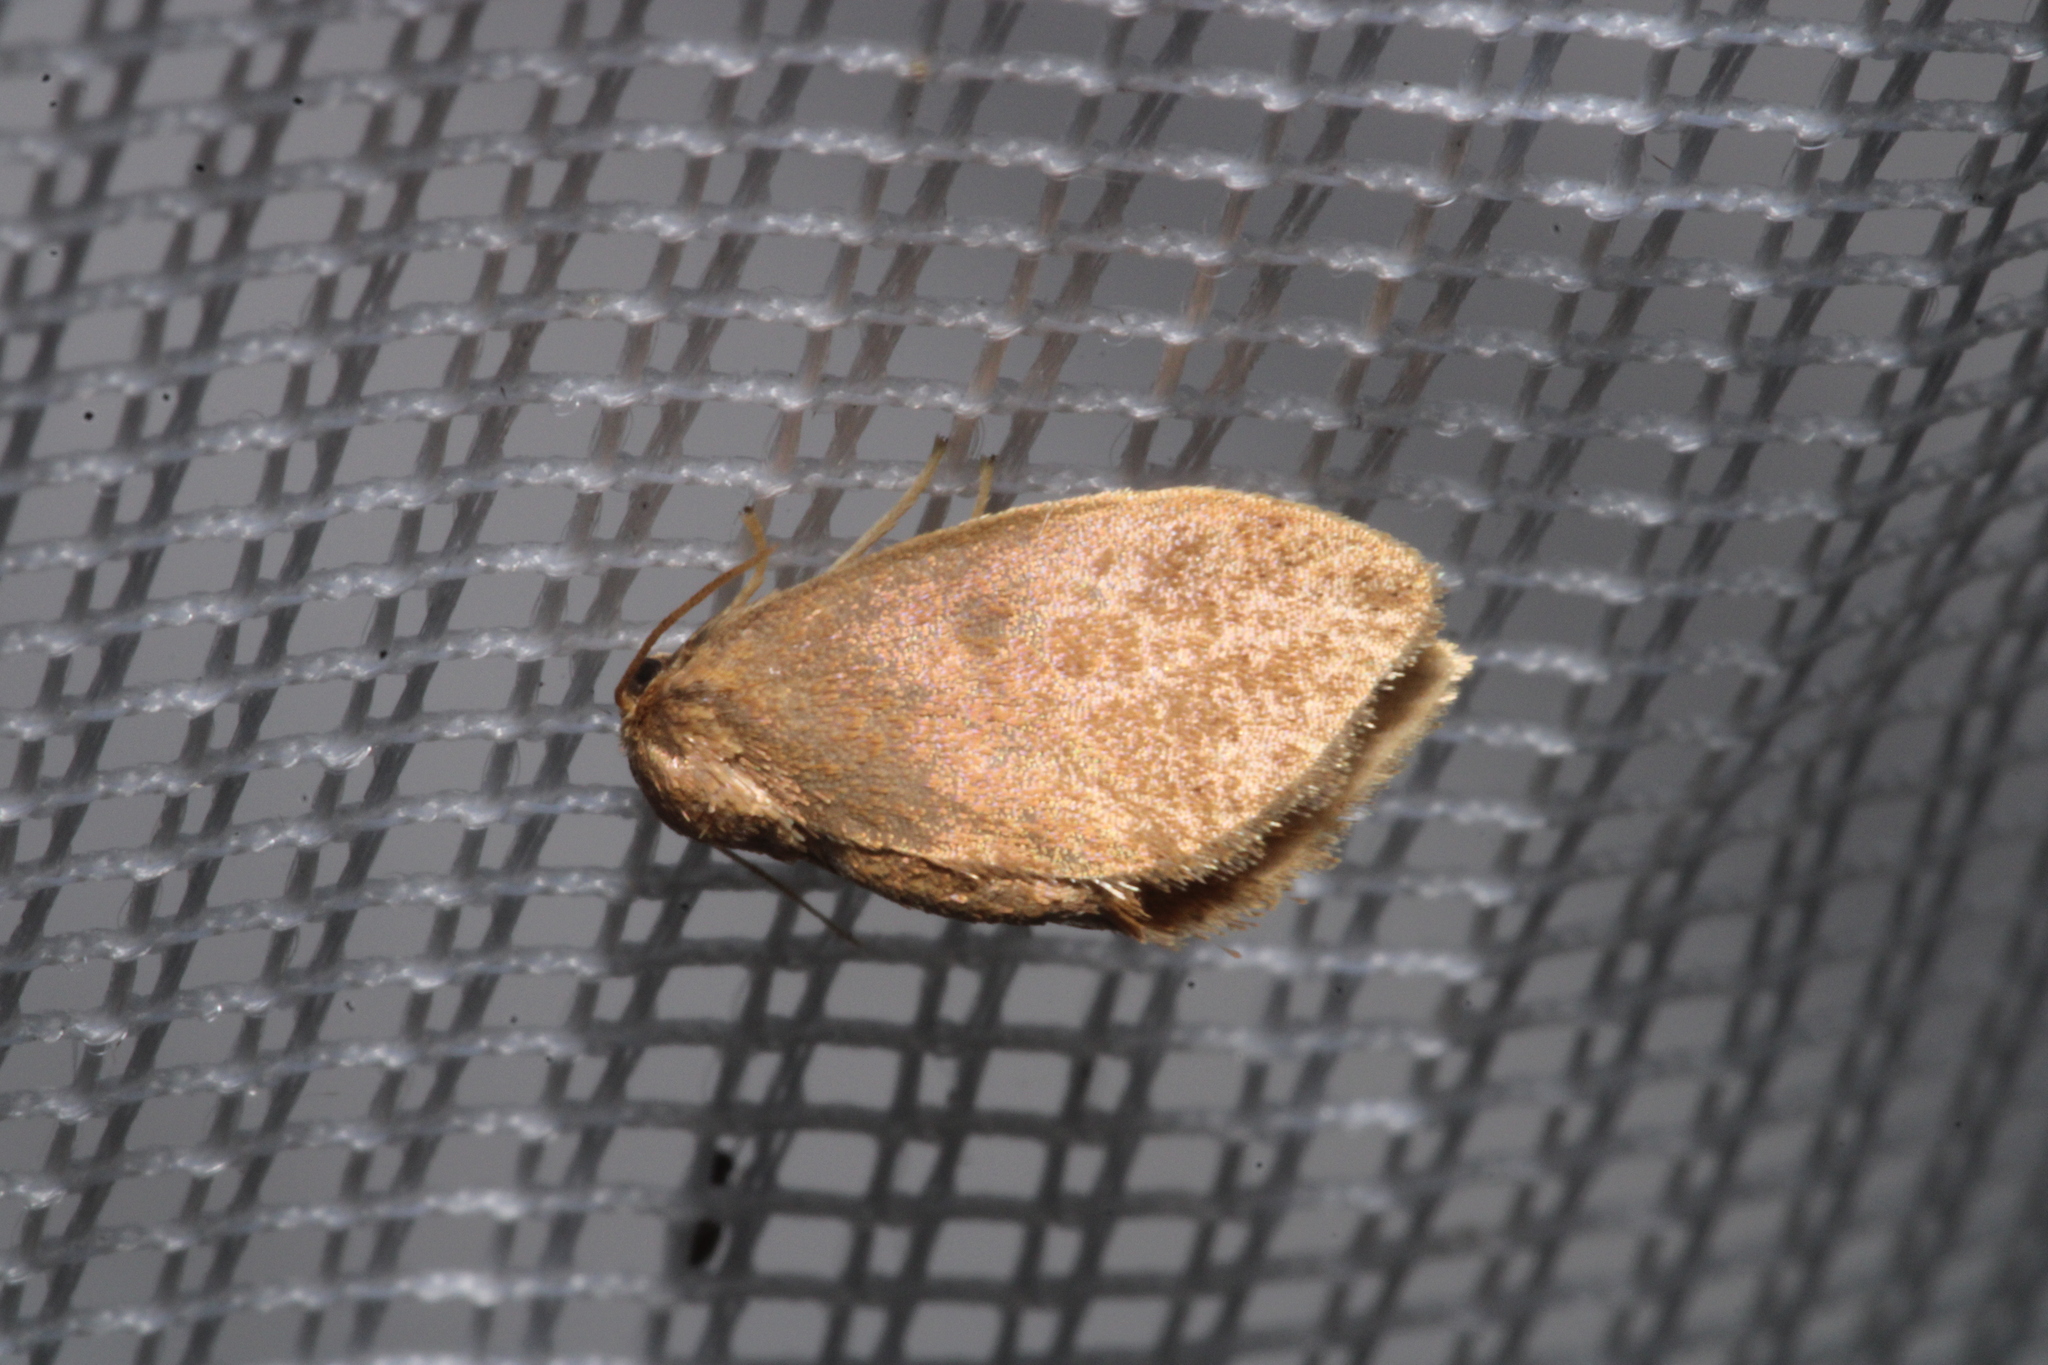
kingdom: Animalia
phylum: Arthropoda
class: Insecta
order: Lepidoptera
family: Limacodidae
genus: Heterogenea
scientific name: Heterogenea asella
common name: Triangle
